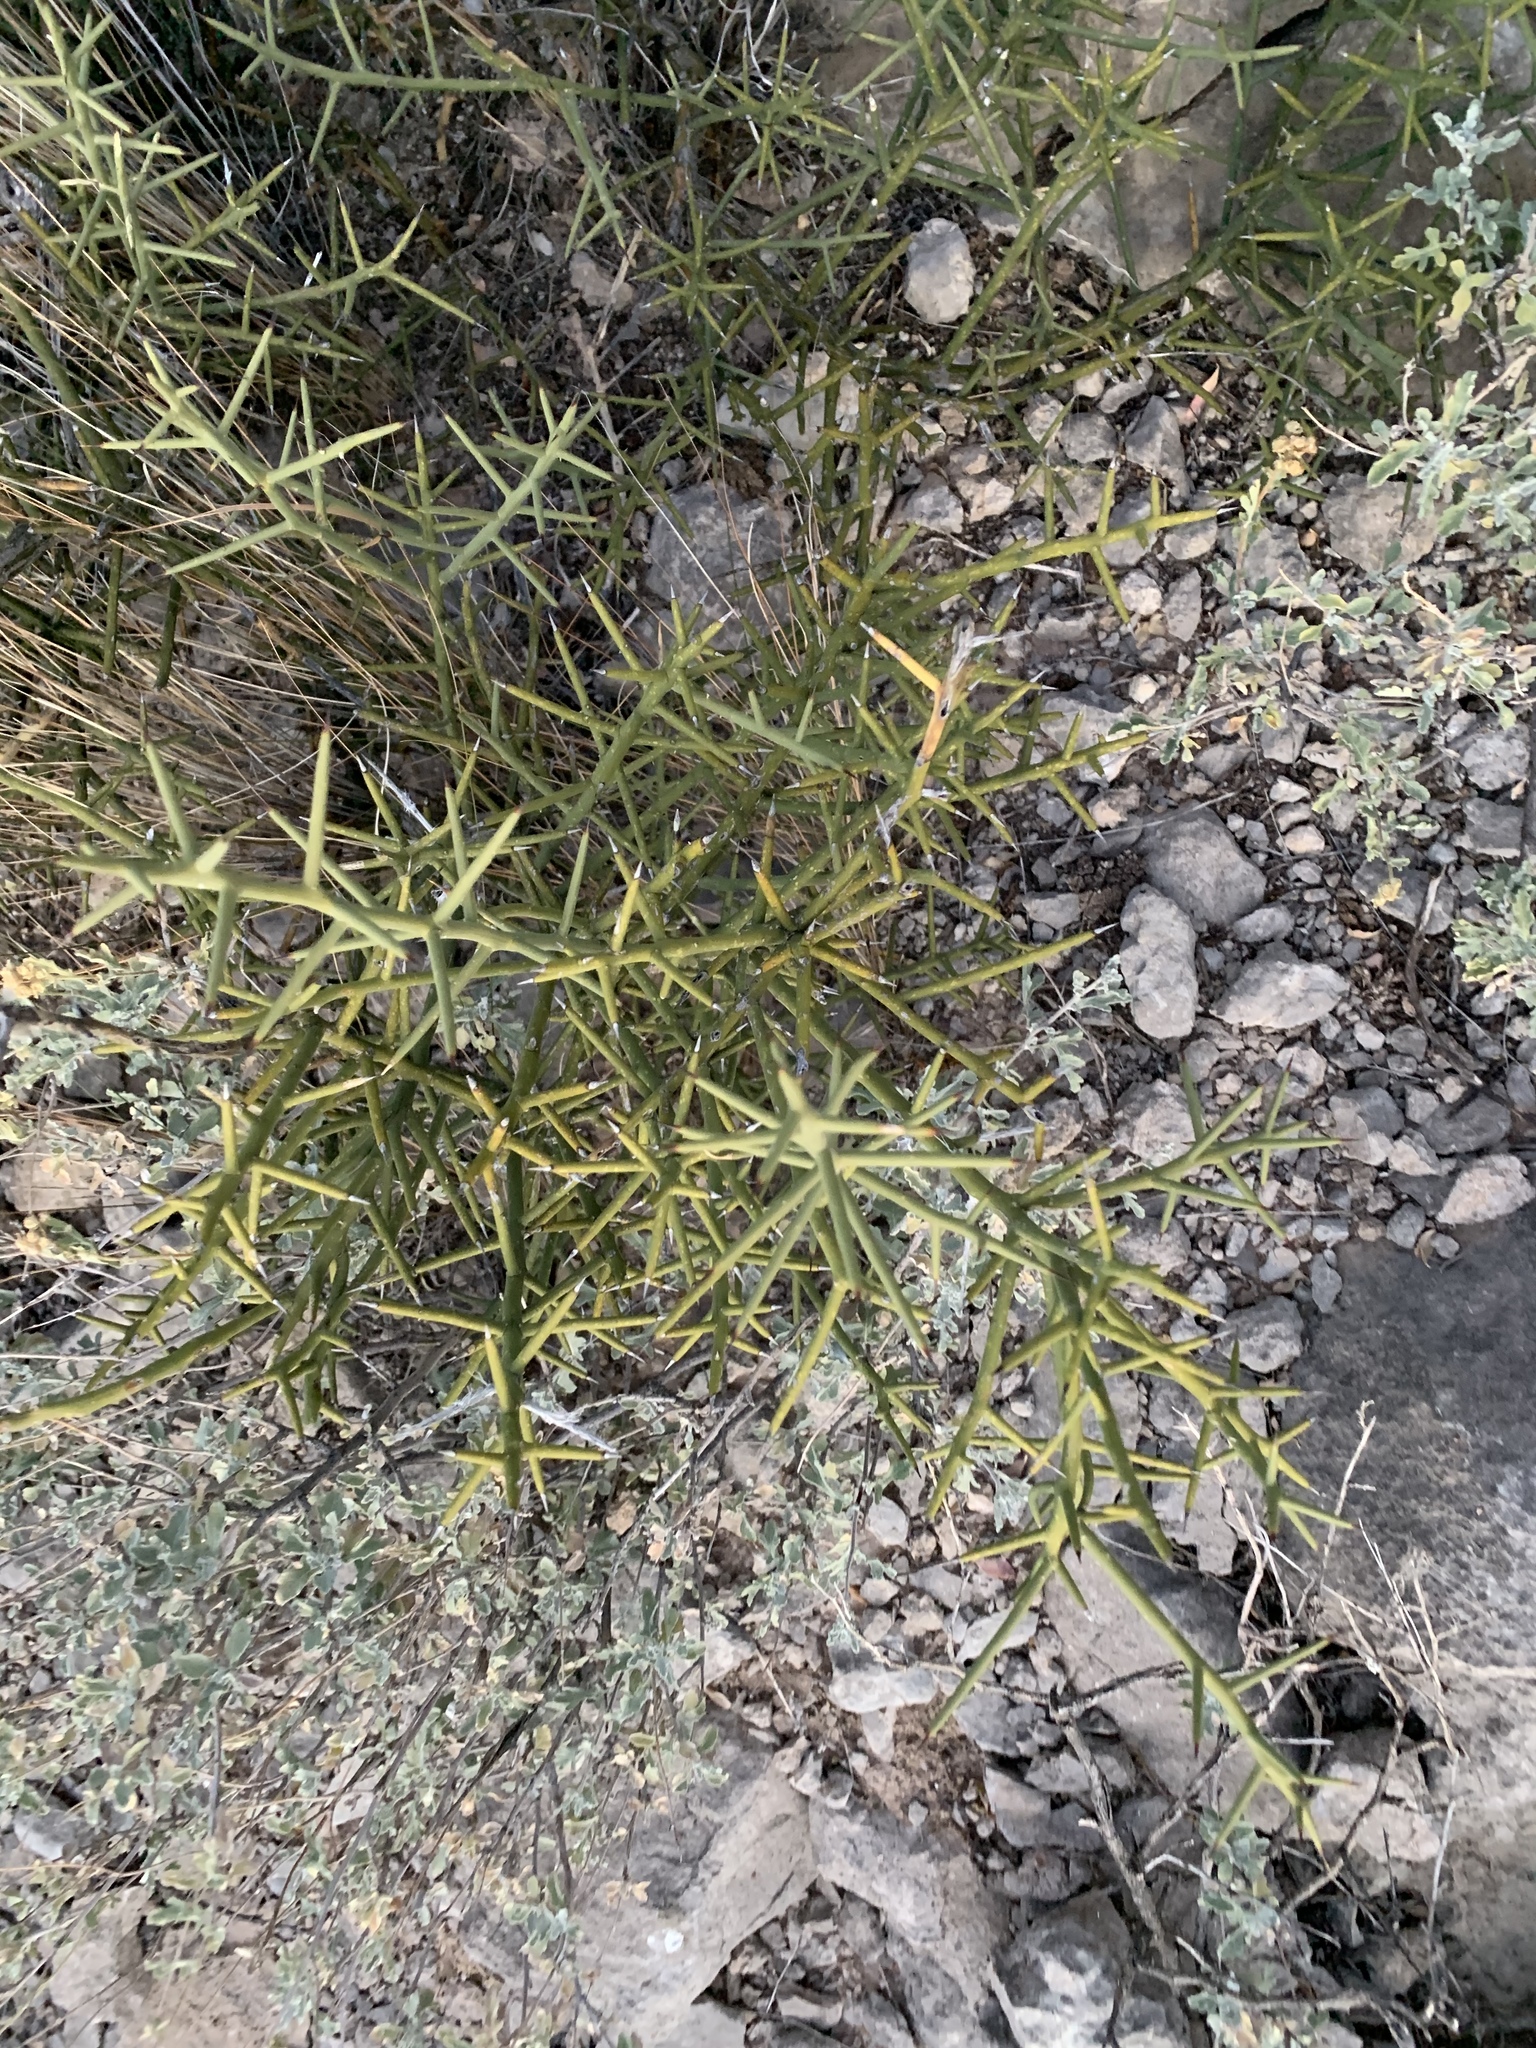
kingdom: Plantae
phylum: Tracheophyta
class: Magnoliopsida
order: Brassicales
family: Koeberliniaceae
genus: Koeberlinia
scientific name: Koeberlinia spinosa
